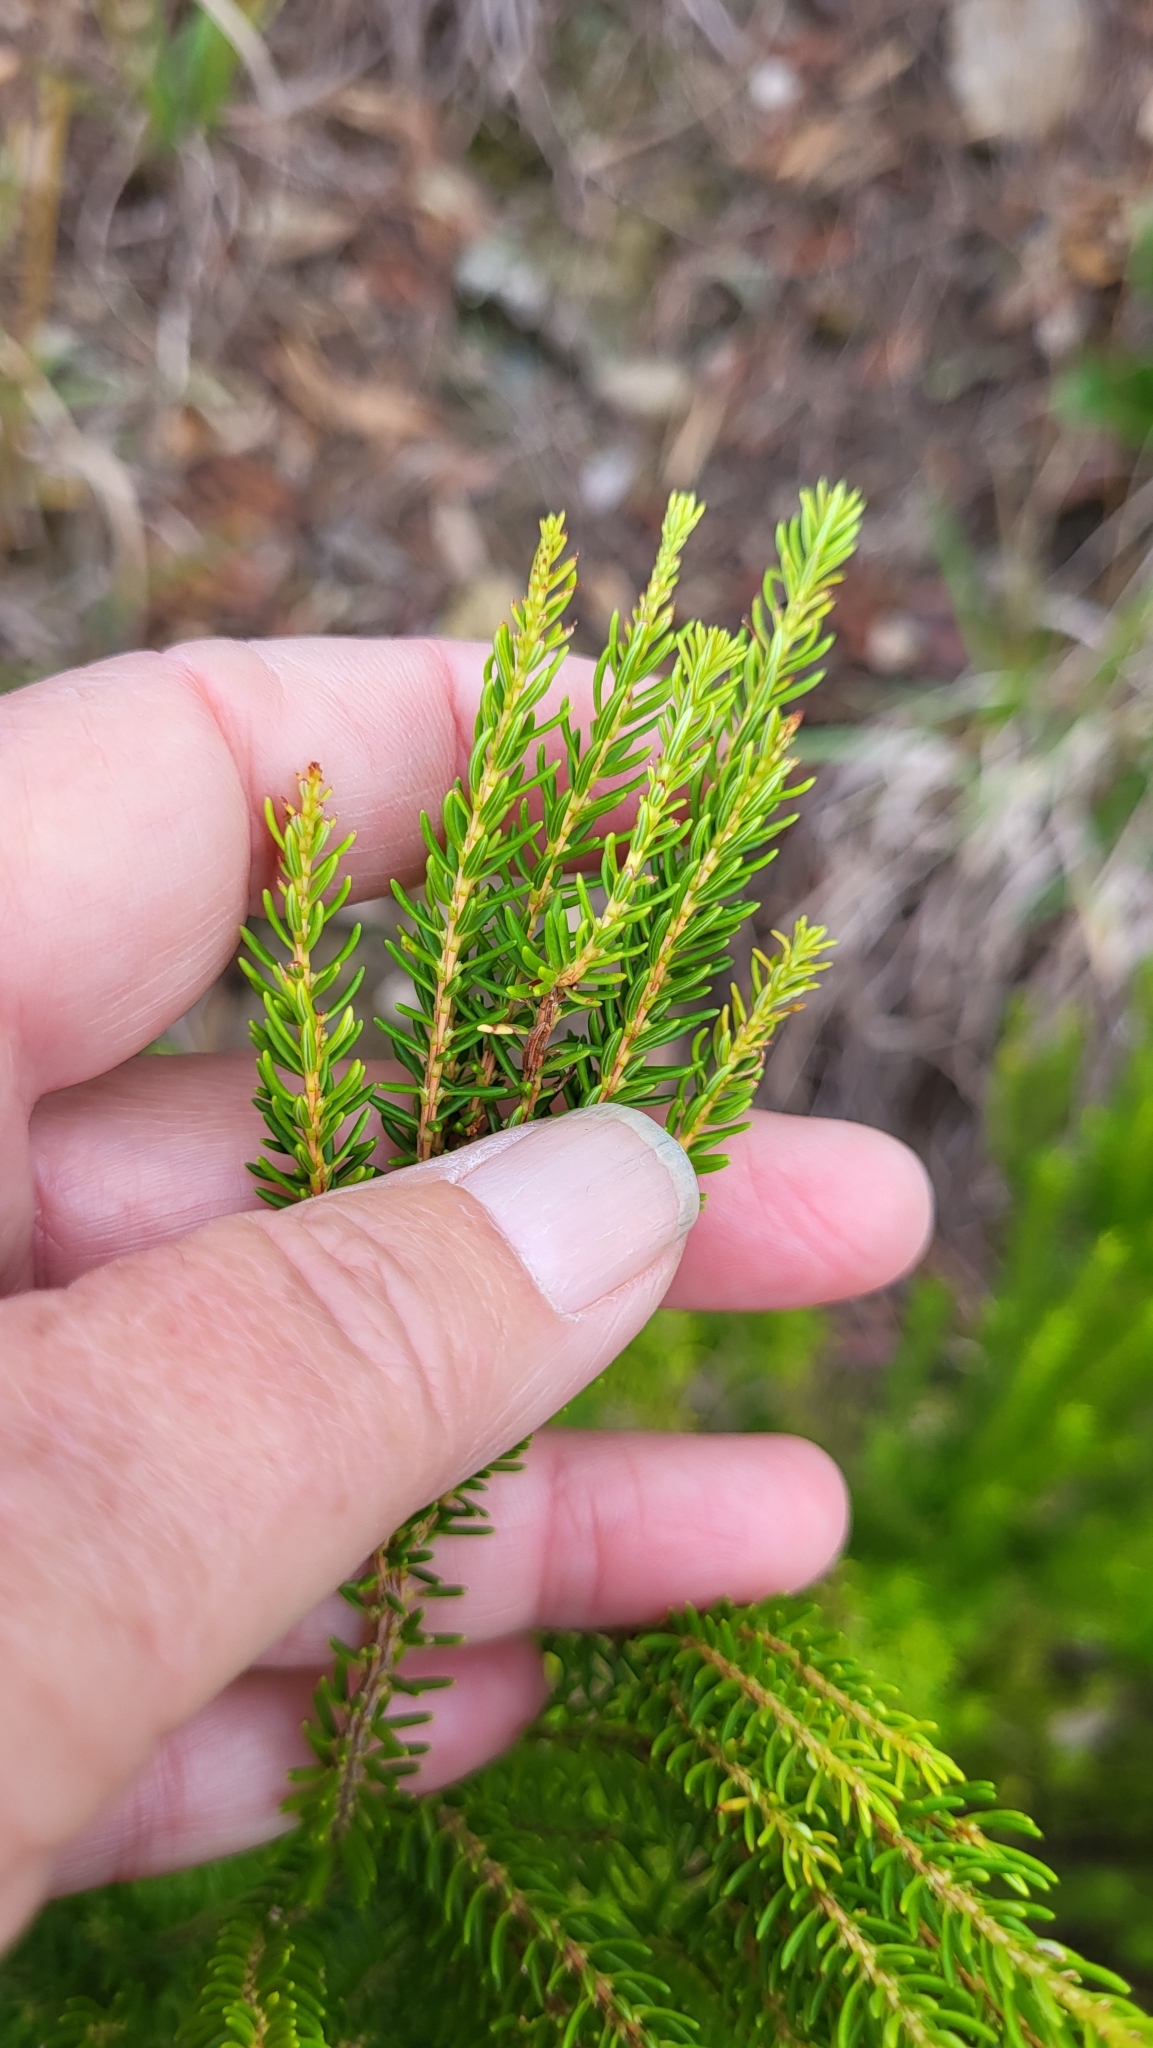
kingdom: Plantae
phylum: Tracheophyta
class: Magnoliopsida
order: Ericales
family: Ericaceae
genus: Erica
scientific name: Erica azorica
